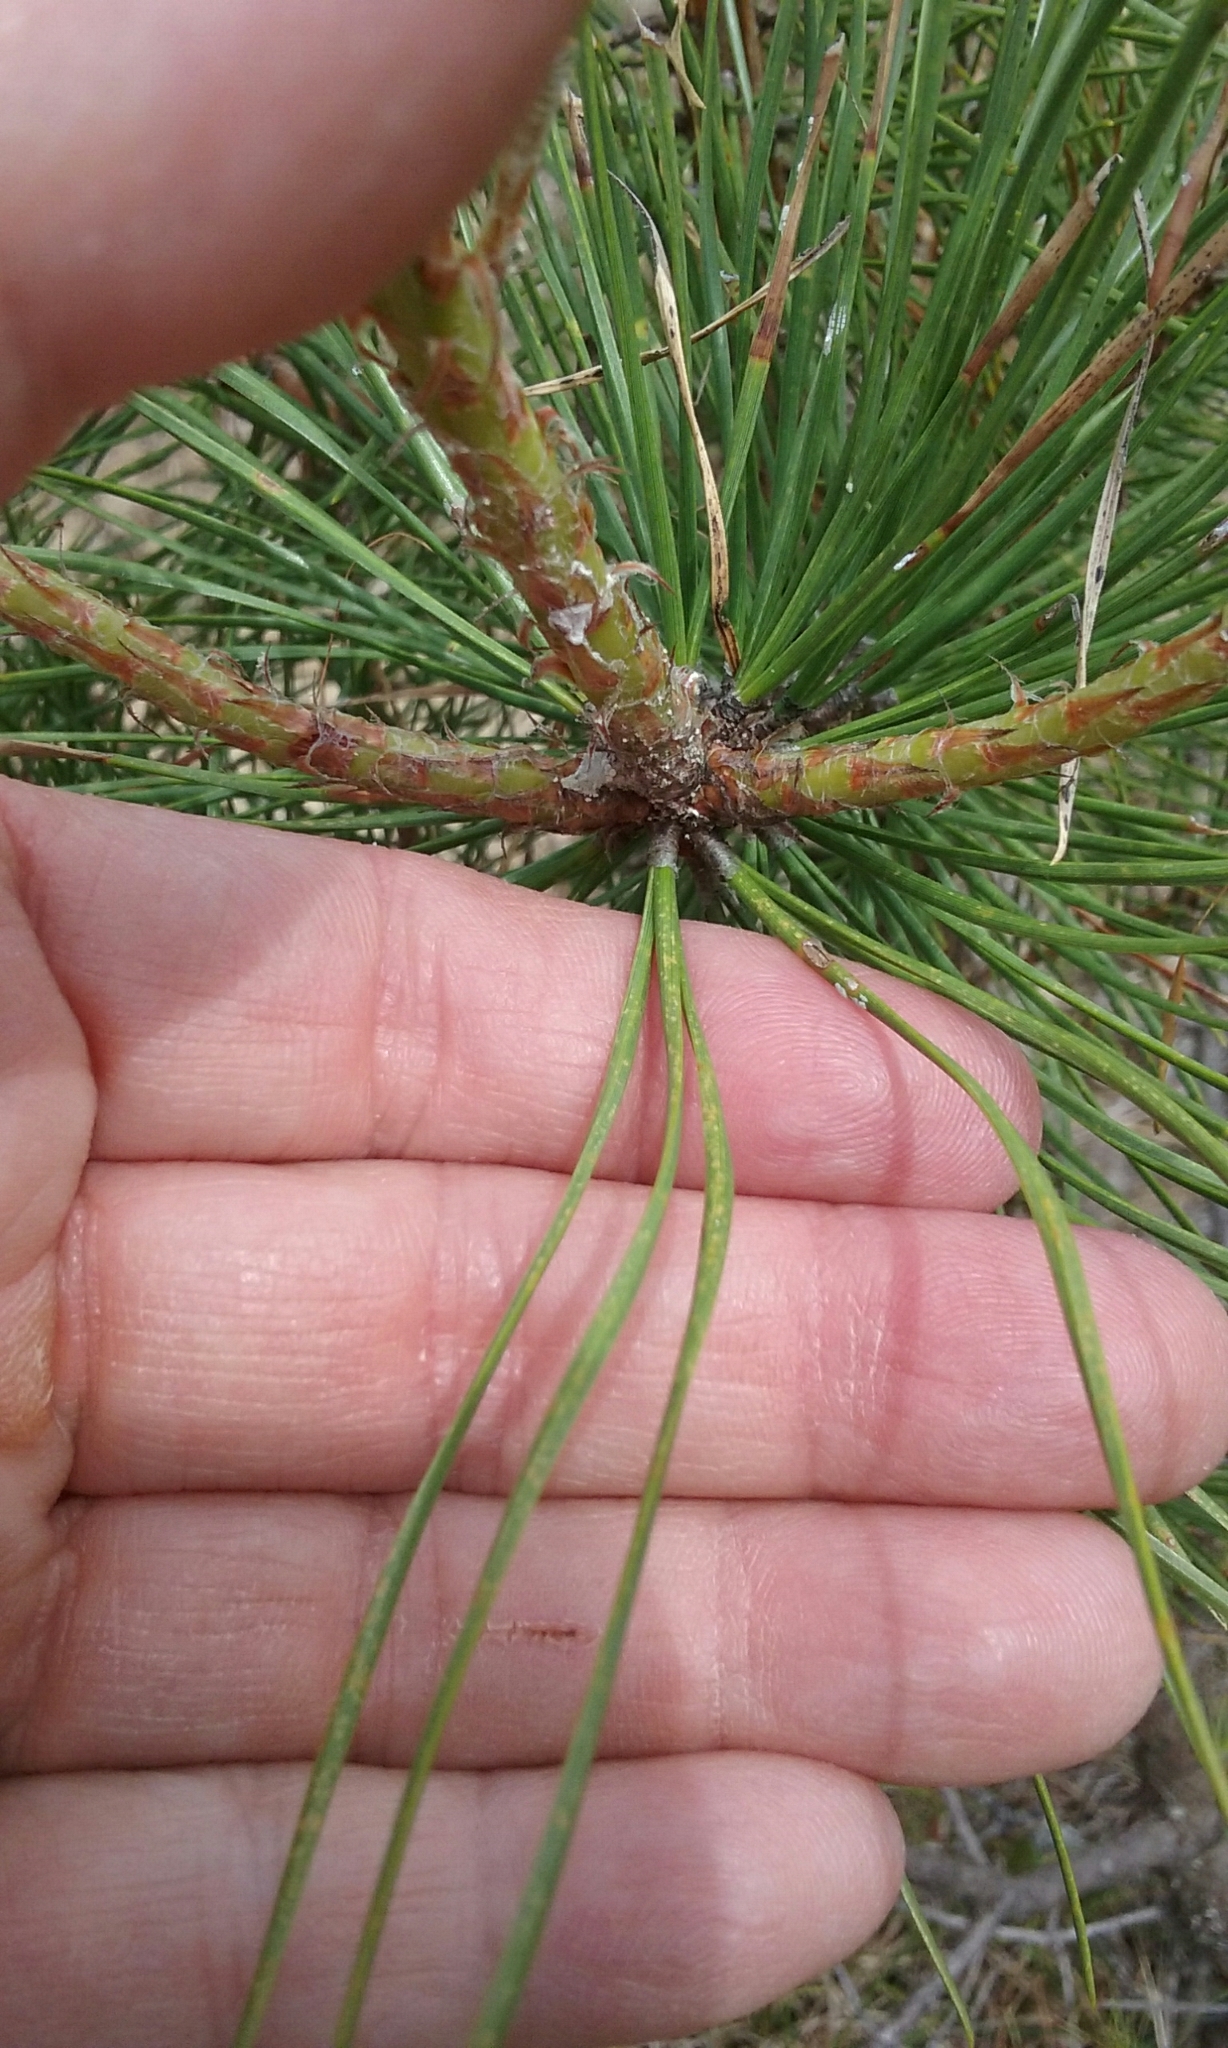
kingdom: Plantae
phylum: Tracheophyta
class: Pinopsida
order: Pinales
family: Pinaceae
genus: Pinus
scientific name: Pinus rigida
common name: Pitch pine
